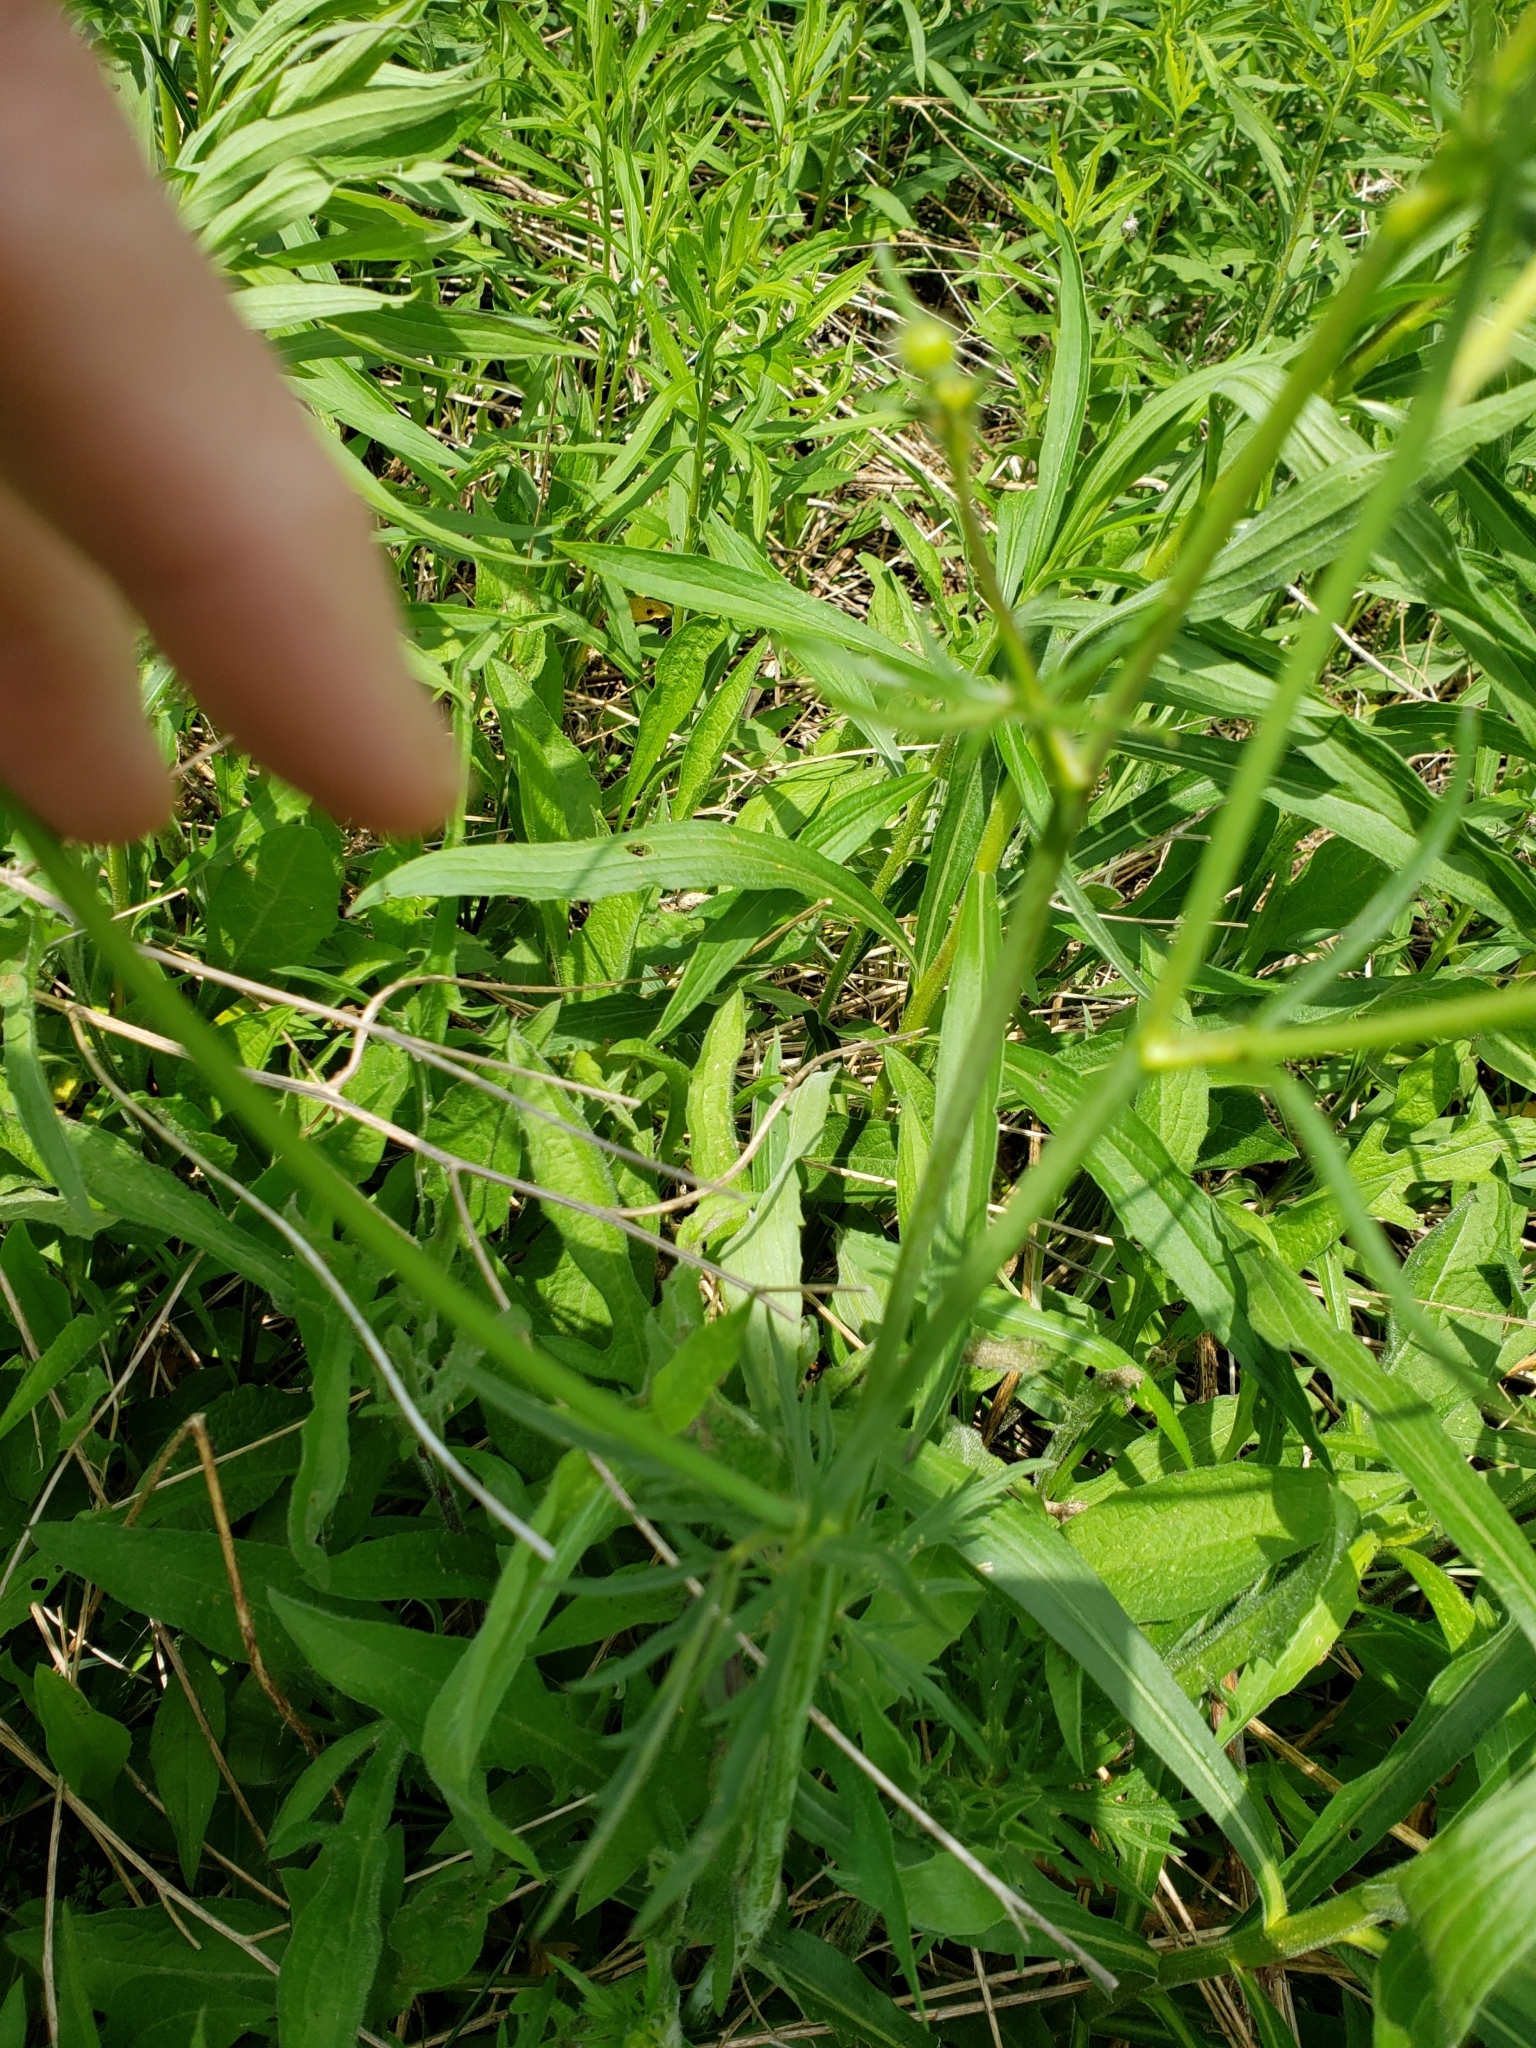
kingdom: Plantae
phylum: Tracheophyta
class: Magnoliopsida
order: Ranunculales
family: Ranunculaceae
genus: Ranunculus
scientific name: Ranunculus acris
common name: Meadow buttercup
